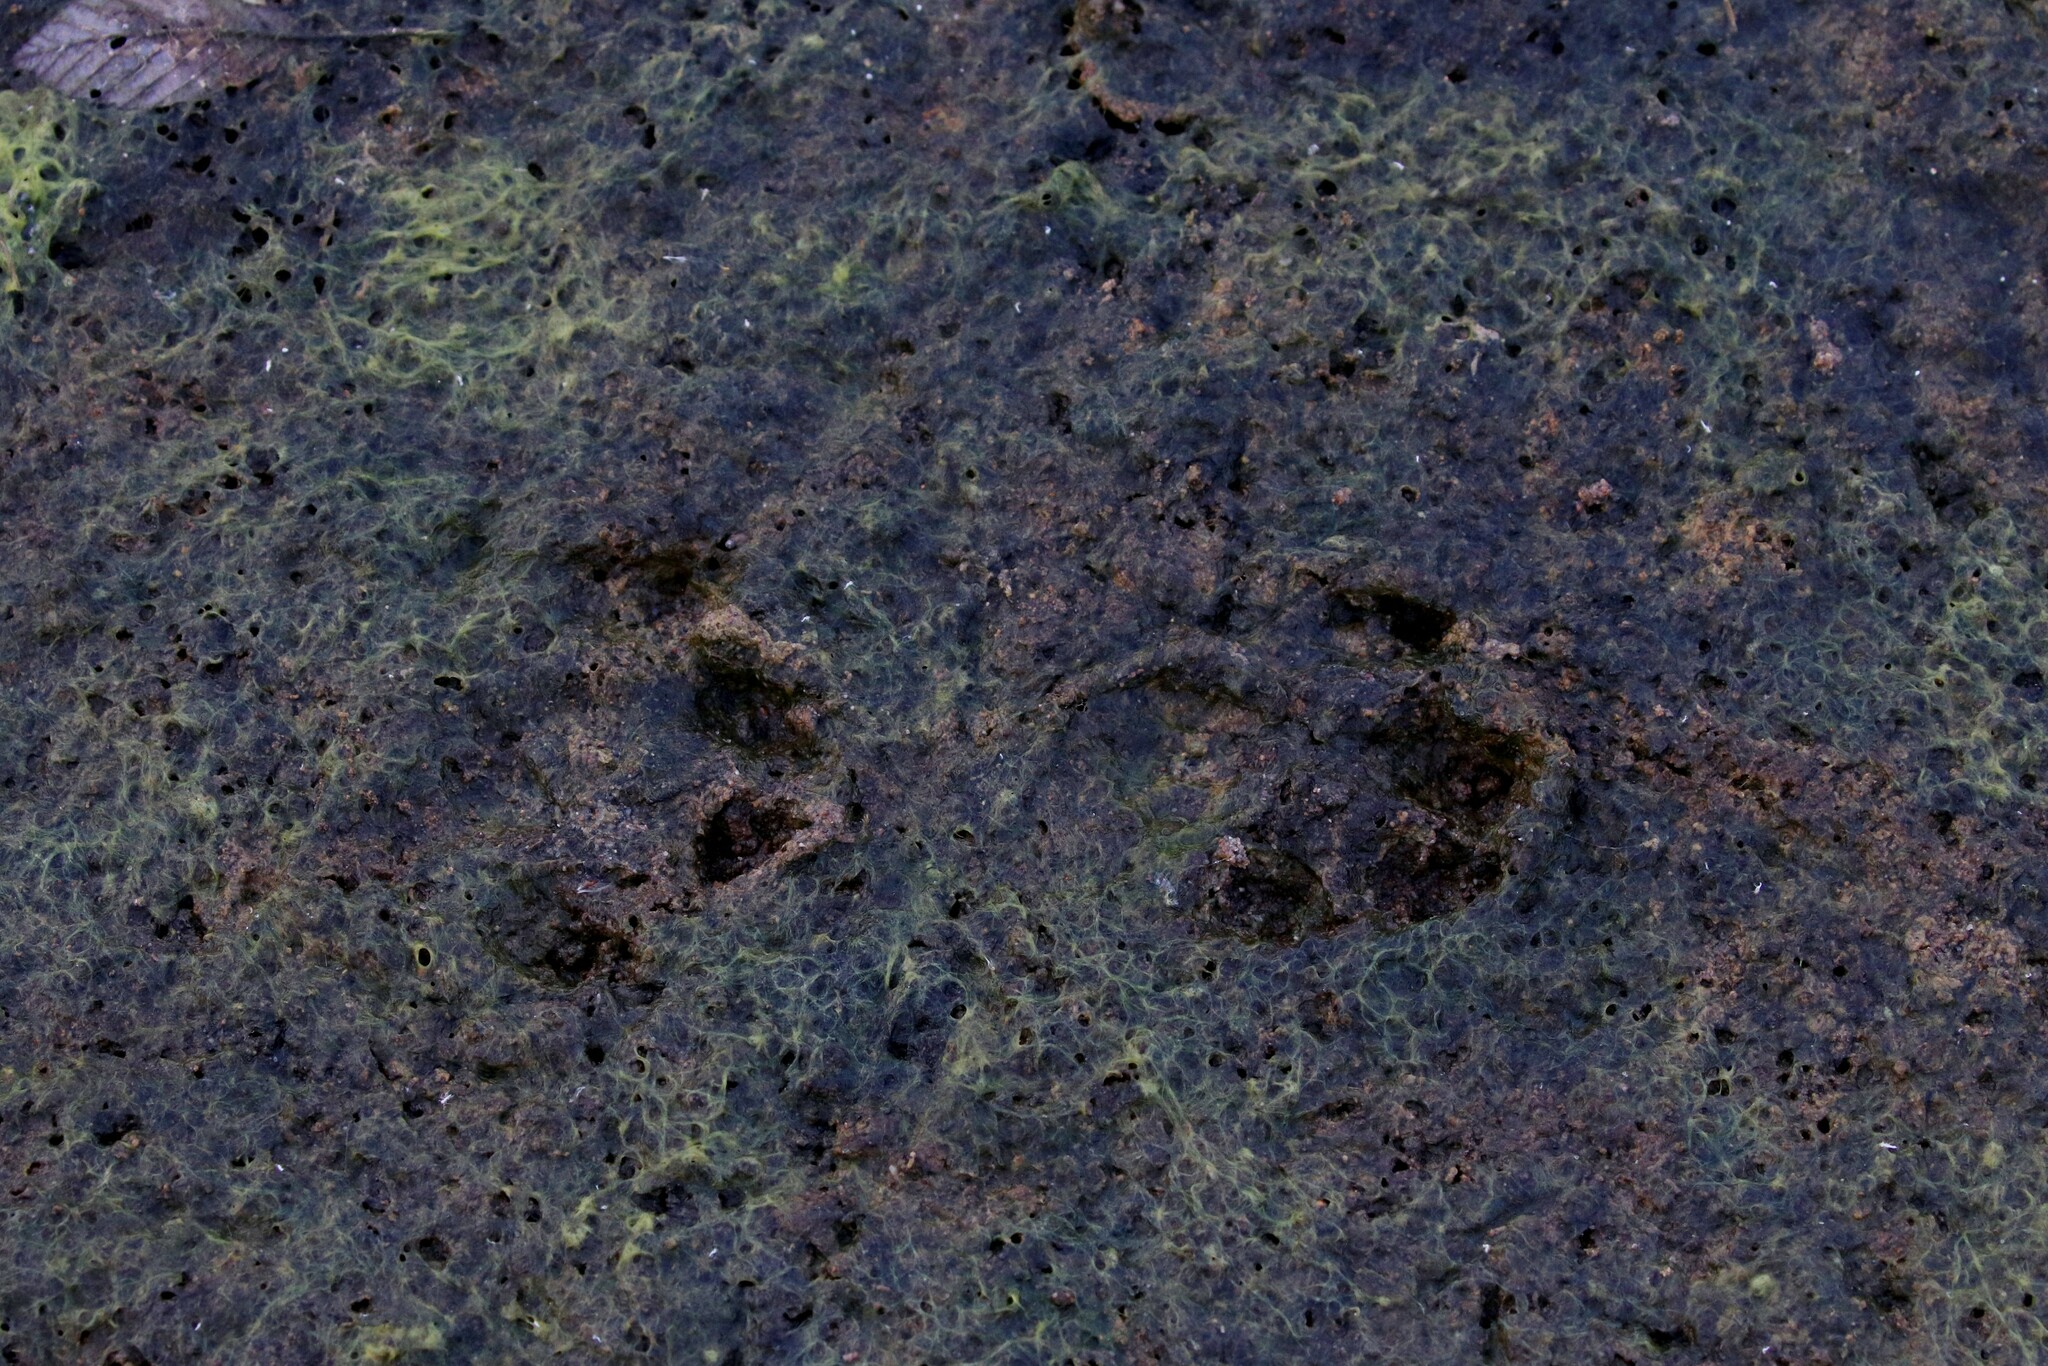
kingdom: Animalia
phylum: Chordata
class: Mammalia
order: Carnivora
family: Mustelidae
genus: Lutra
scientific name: Lutra lutra
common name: European otter
